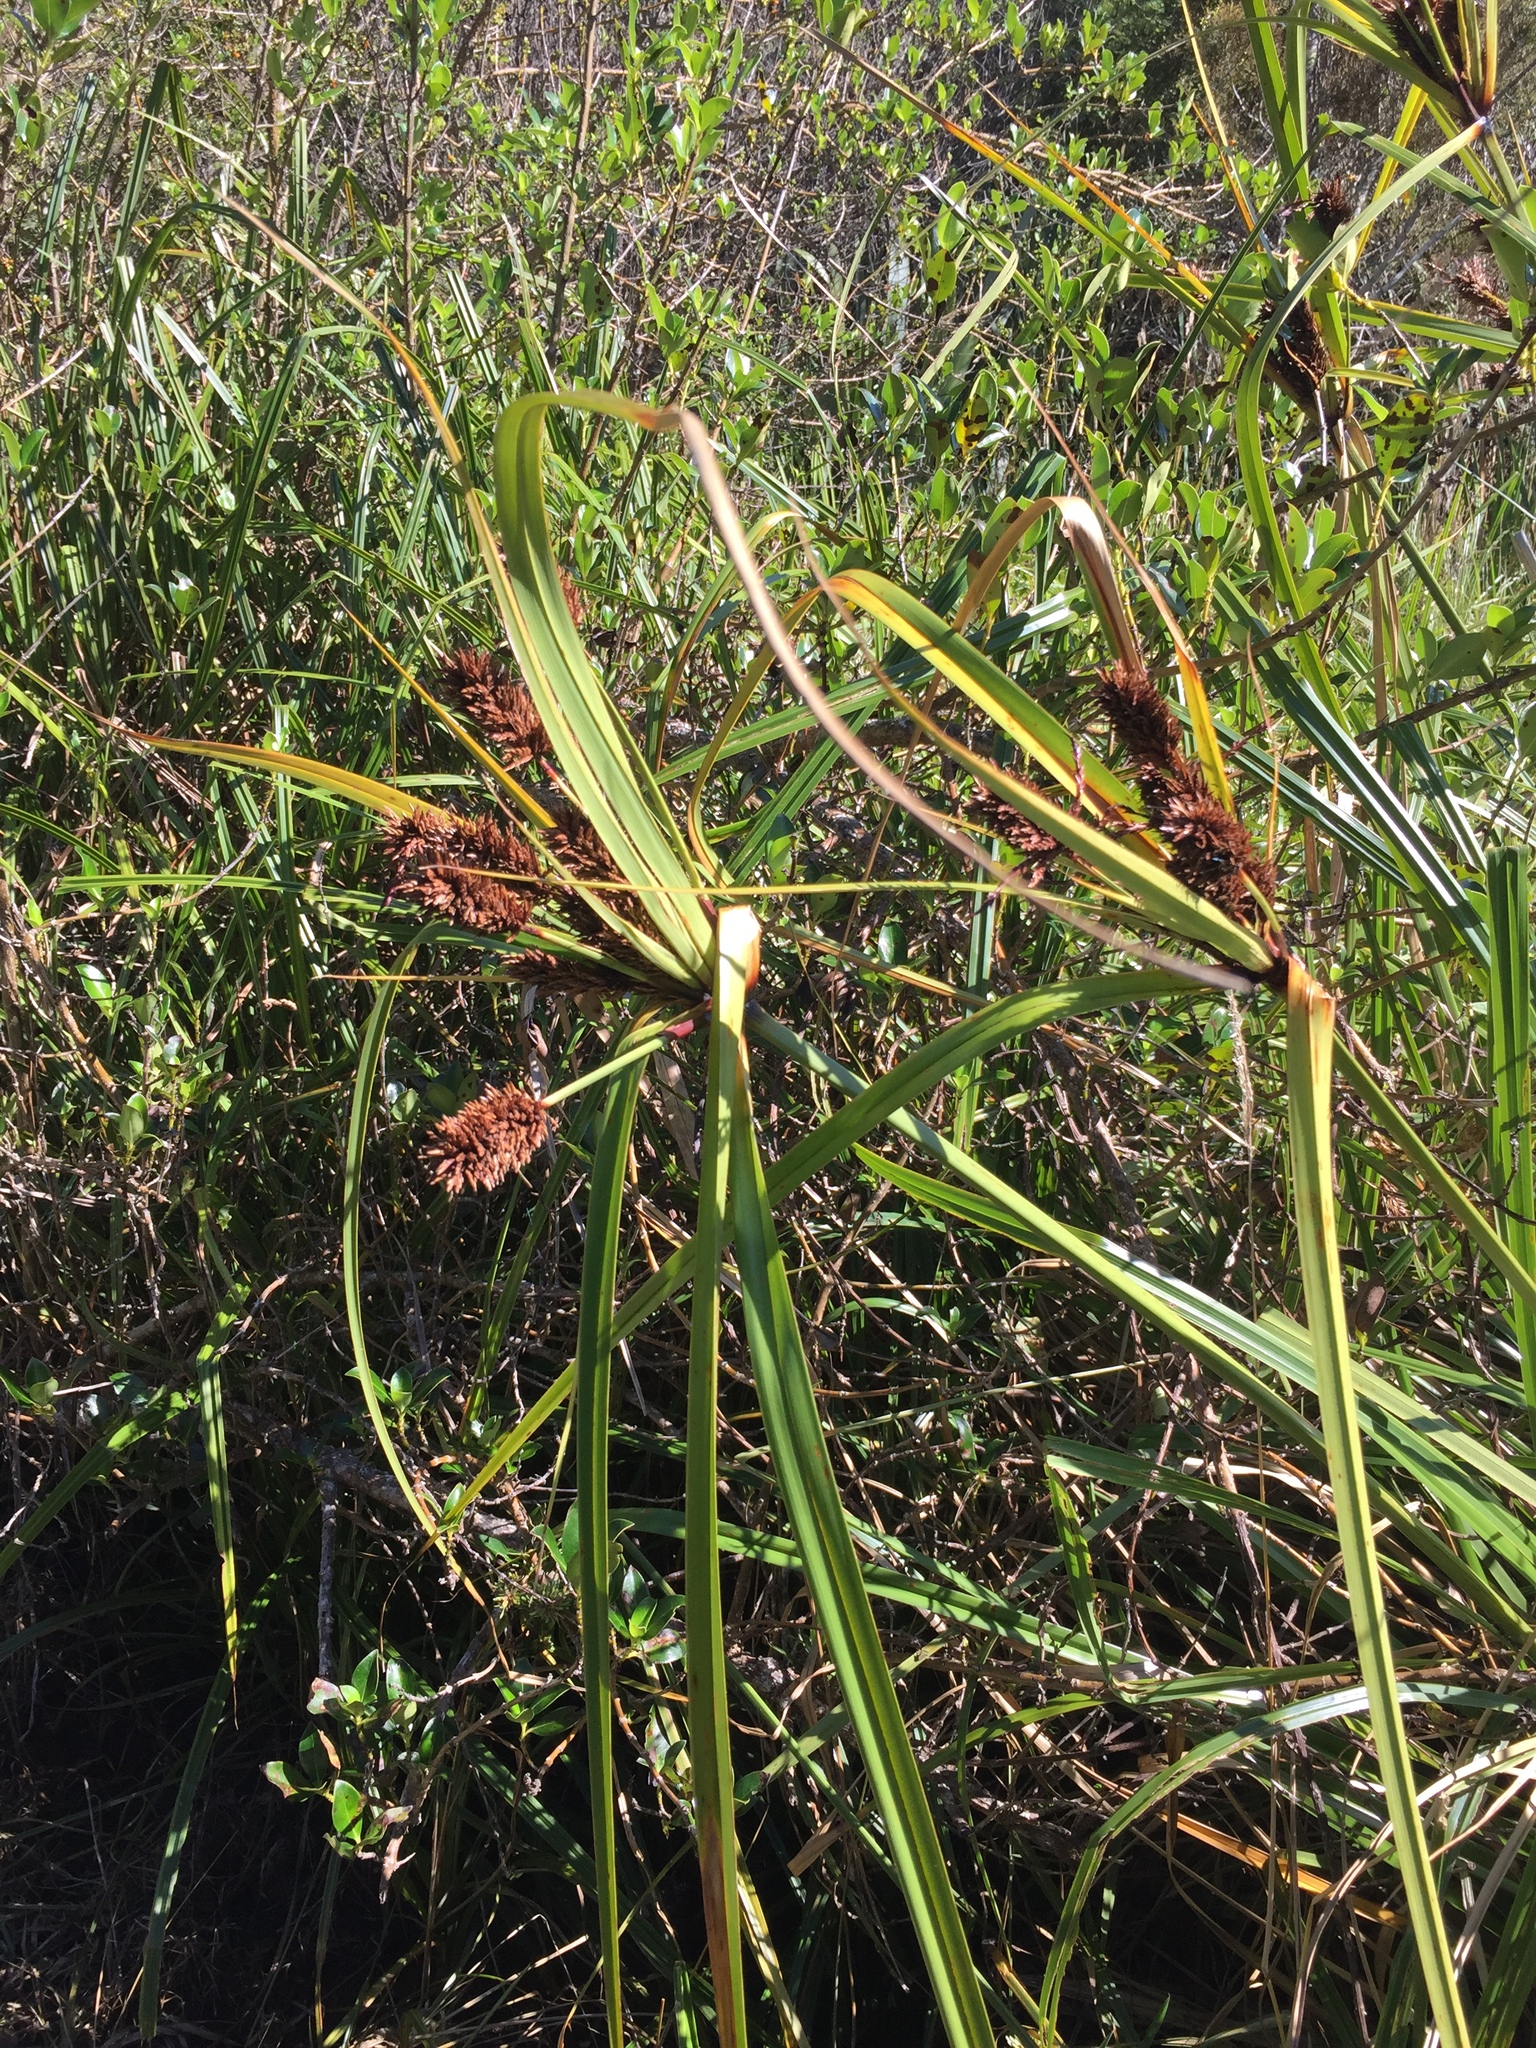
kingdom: Plantae
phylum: Tracheophyta
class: Liliopsida
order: Poales
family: Cyperaceae
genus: Cyperus
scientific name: Cyperus ustulatus
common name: Giant umbrella-sedge
